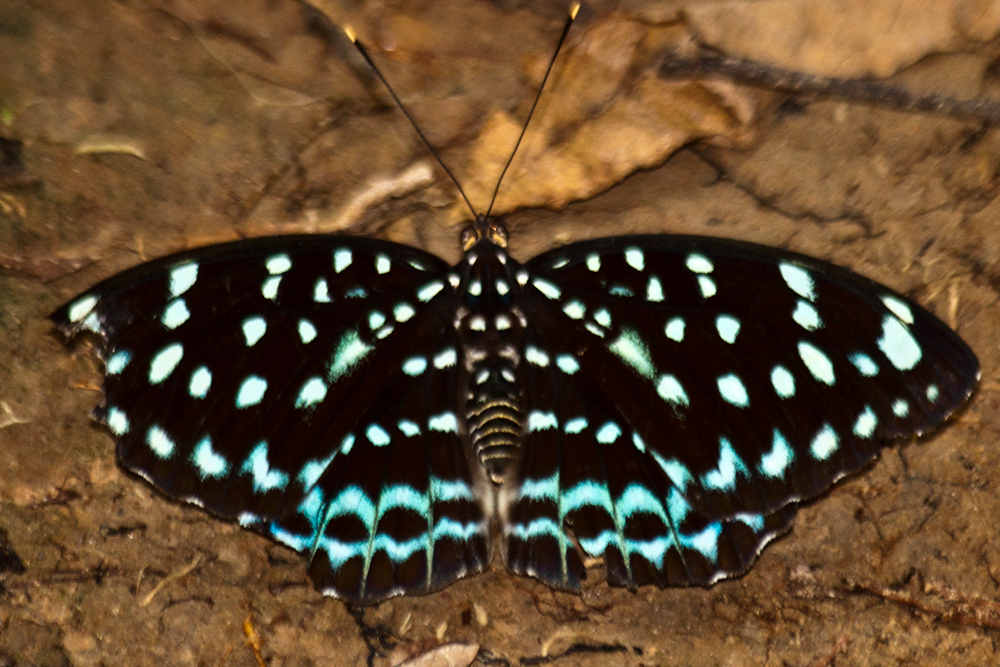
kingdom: Animalia
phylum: Arthropoda
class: Insecta
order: Lepidoptera
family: Nymphalidae
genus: Lexias
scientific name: Lexias
